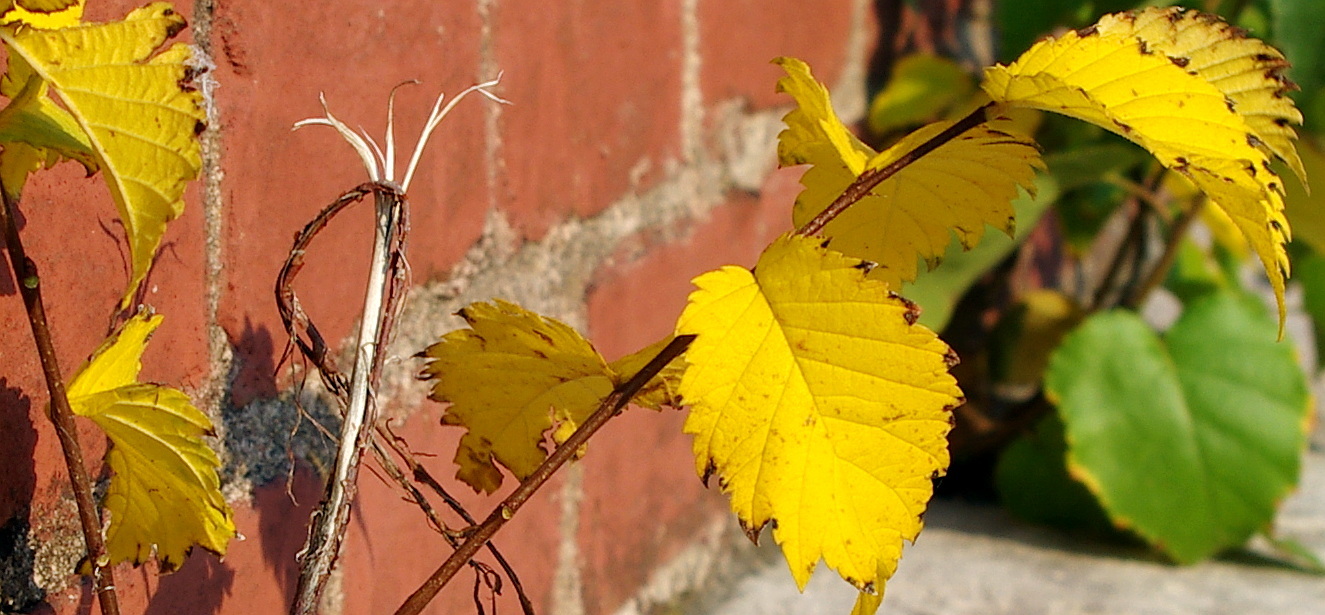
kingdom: Plantae
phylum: Tracheophyta
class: Magnoliopsida
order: Fagales
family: Betulaceae
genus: Betula
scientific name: Betula pendula
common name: Silver birch
